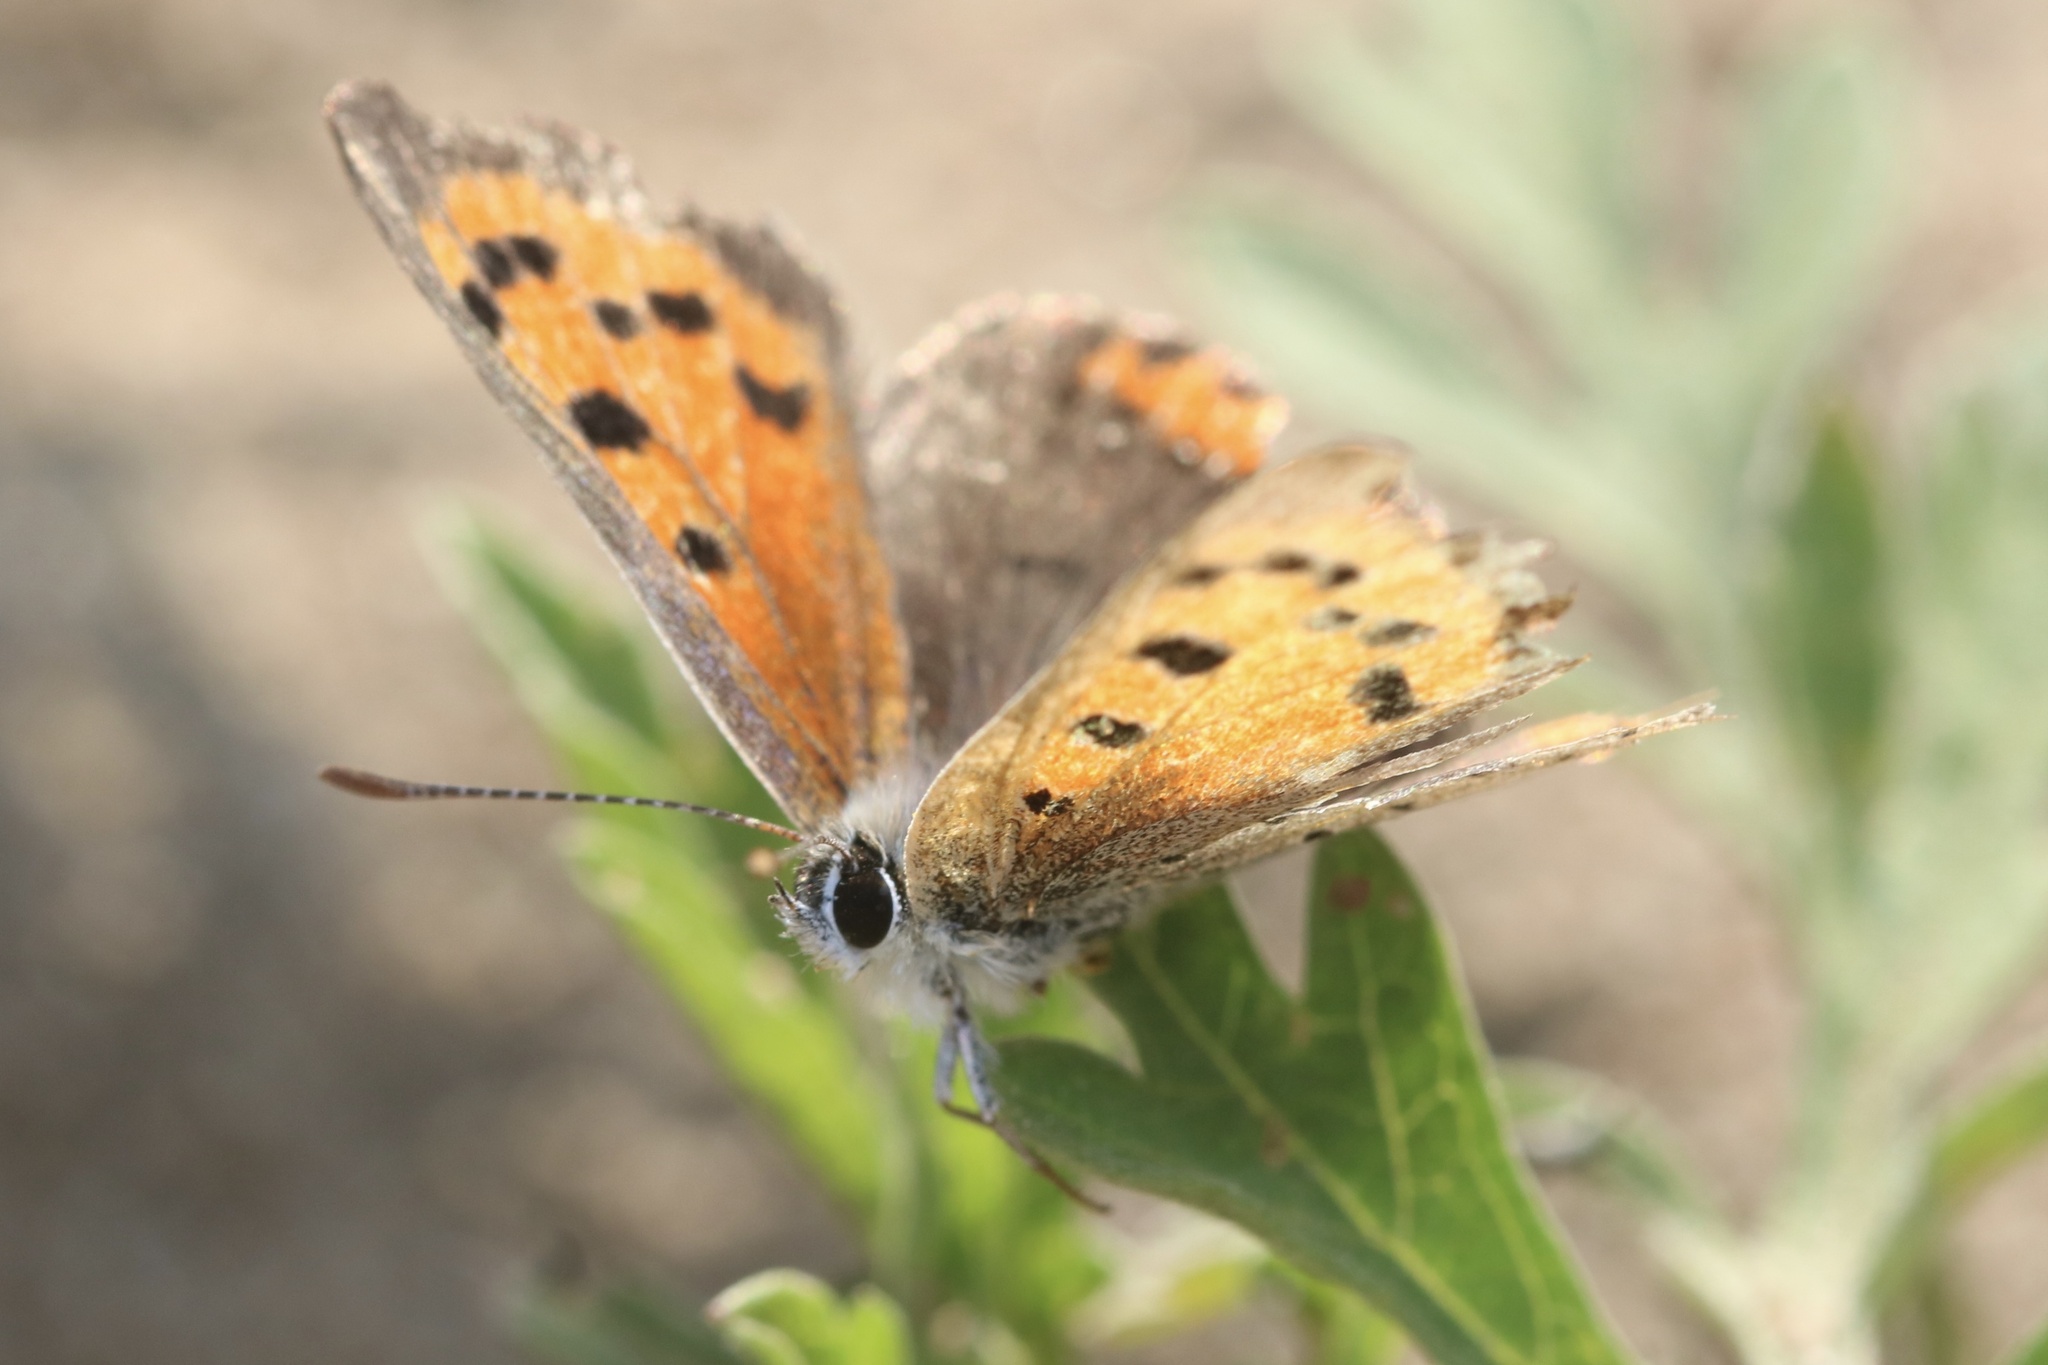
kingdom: Animalia
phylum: Arthropoda
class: Insecta
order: Lepidoptera
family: Lycaenidae
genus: Lycaena
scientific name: Lycaena hypophlaeas
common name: American copper
